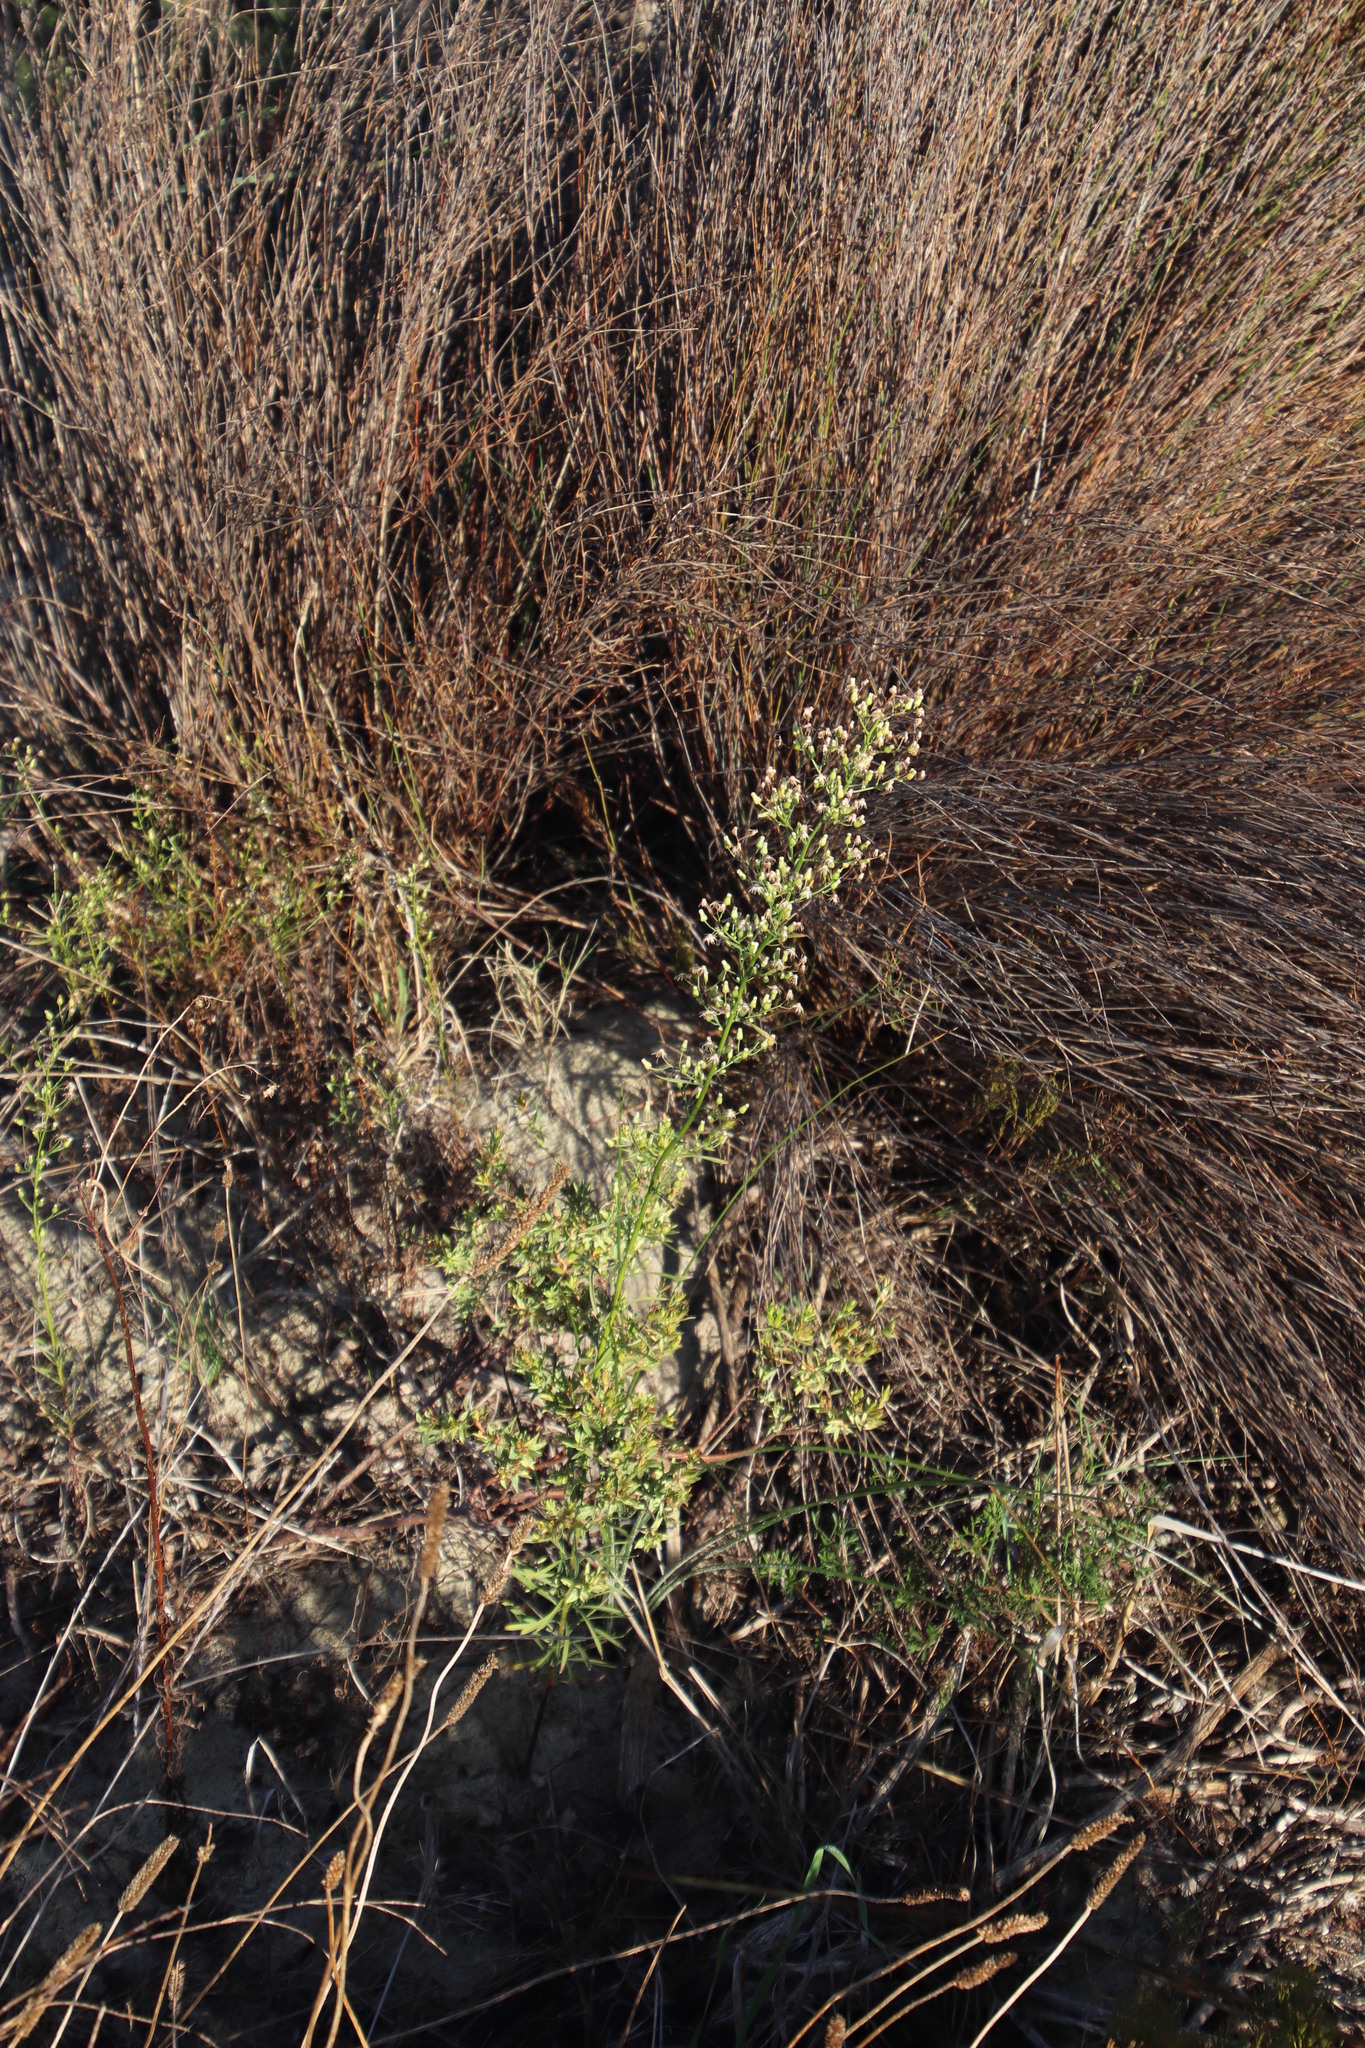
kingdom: Plantae
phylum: Tracheophyta
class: Magnoliopsida
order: Asterales
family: Asteraceae
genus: Erigeron
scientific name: Erigeron canadensis
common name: Canadian fleabane
